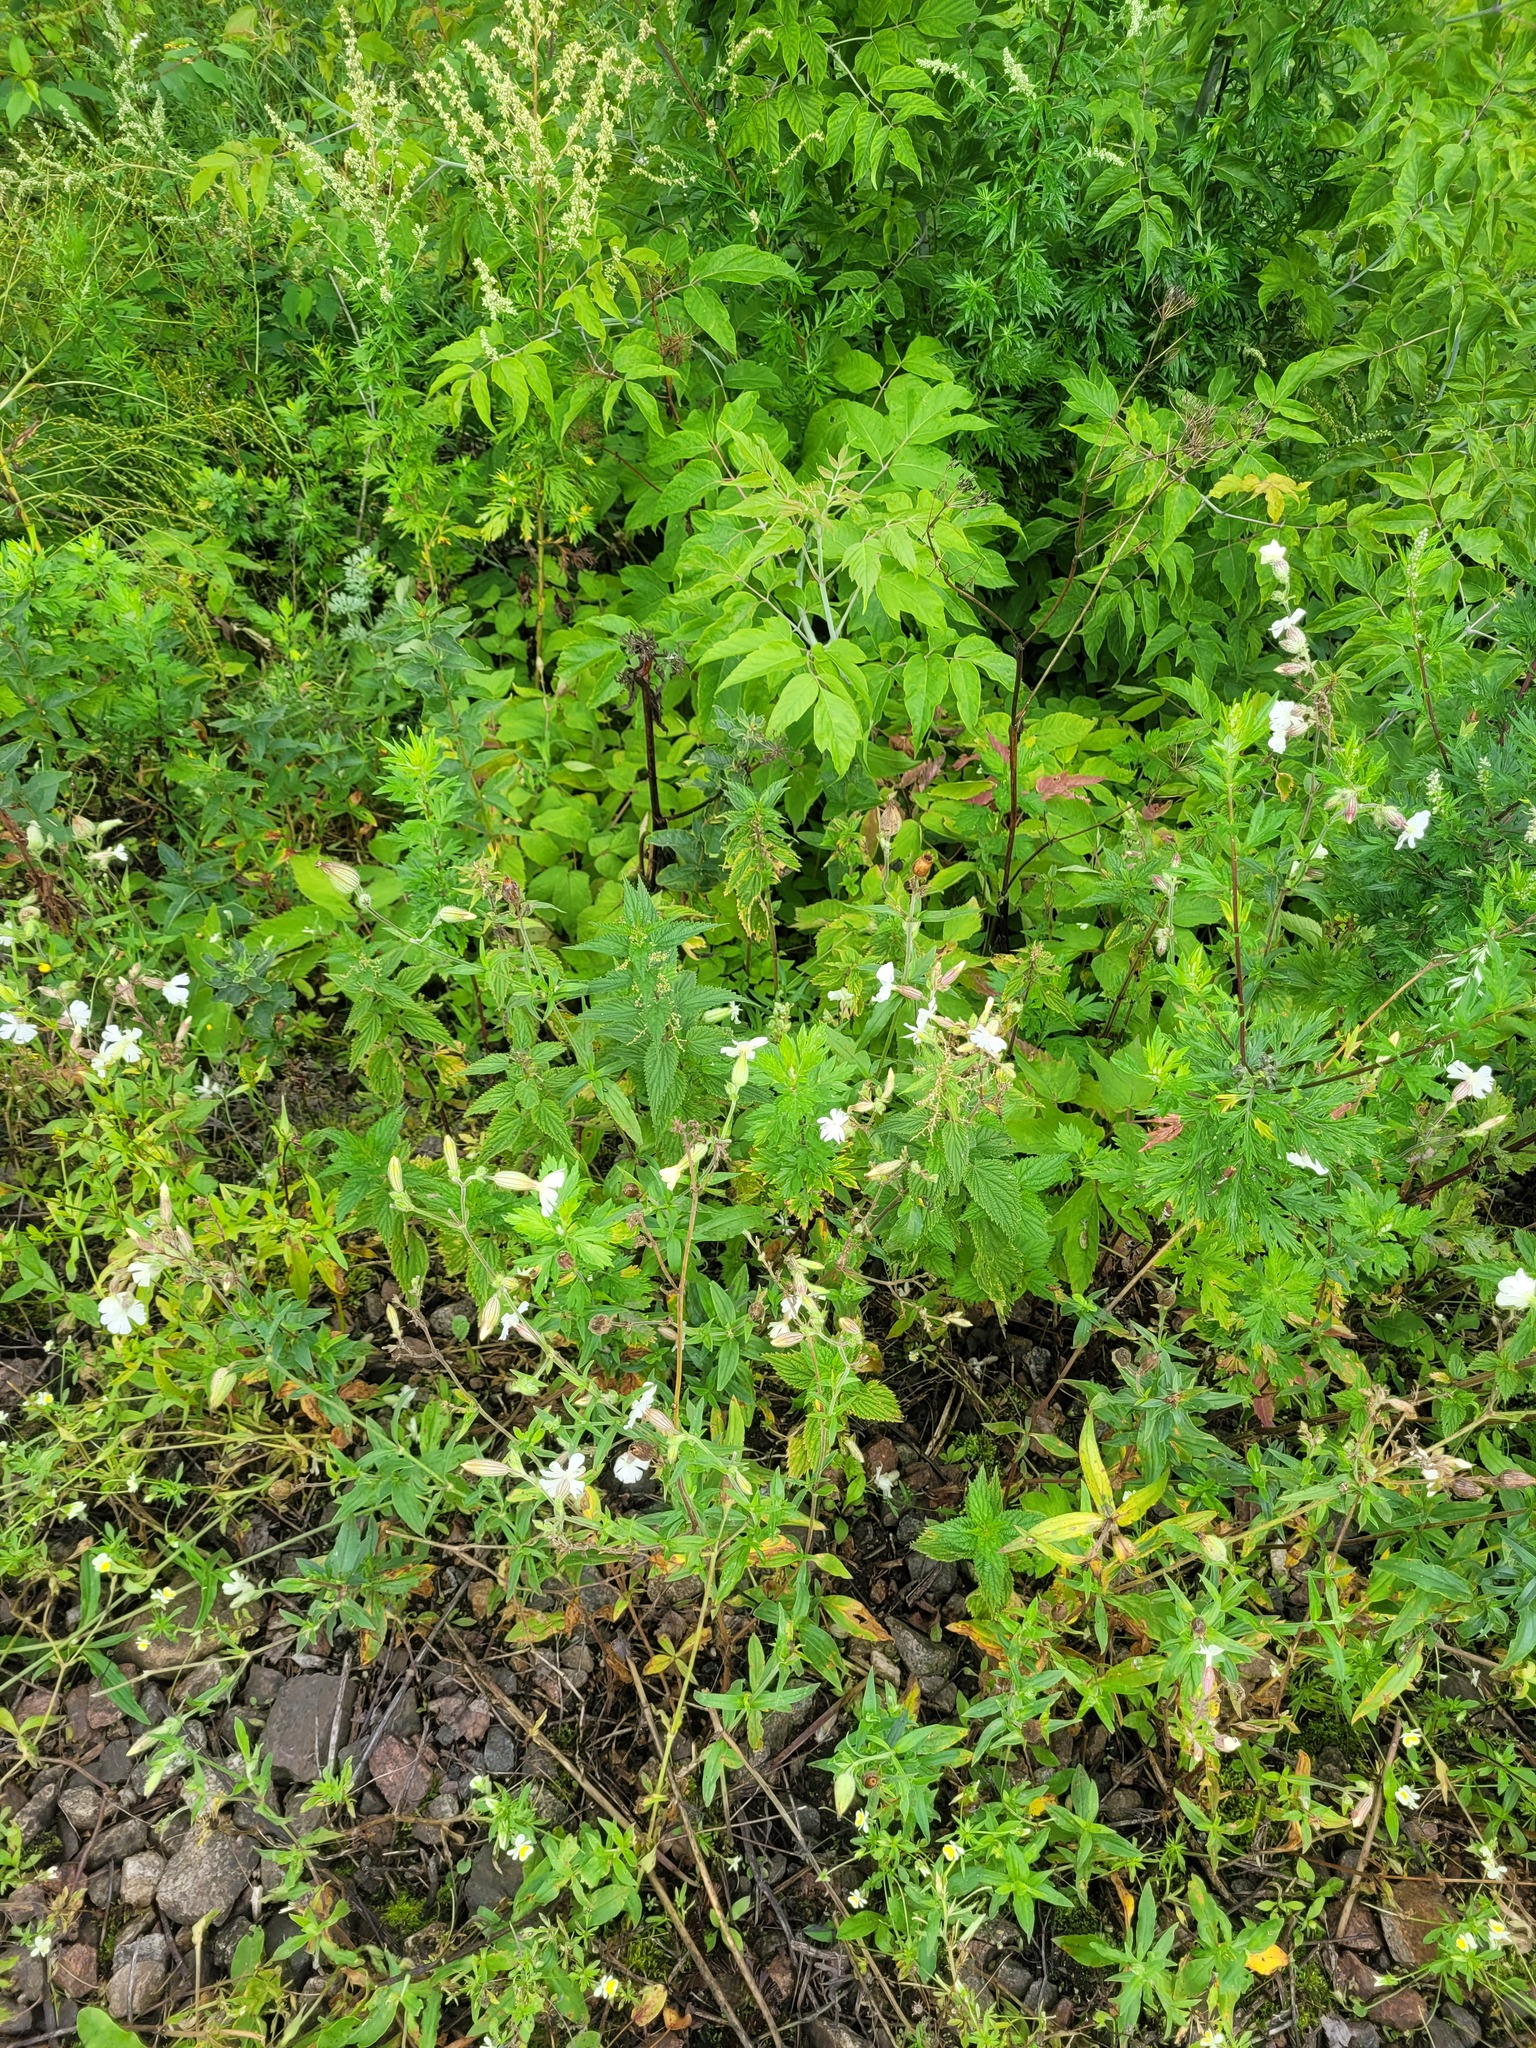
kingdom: Plantae
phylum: Tracheophyta
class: Magnoliopsida
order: Caryophyllales
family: Caryophyllaceae
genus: Silene
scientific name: Silene latifolia
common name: White campion
